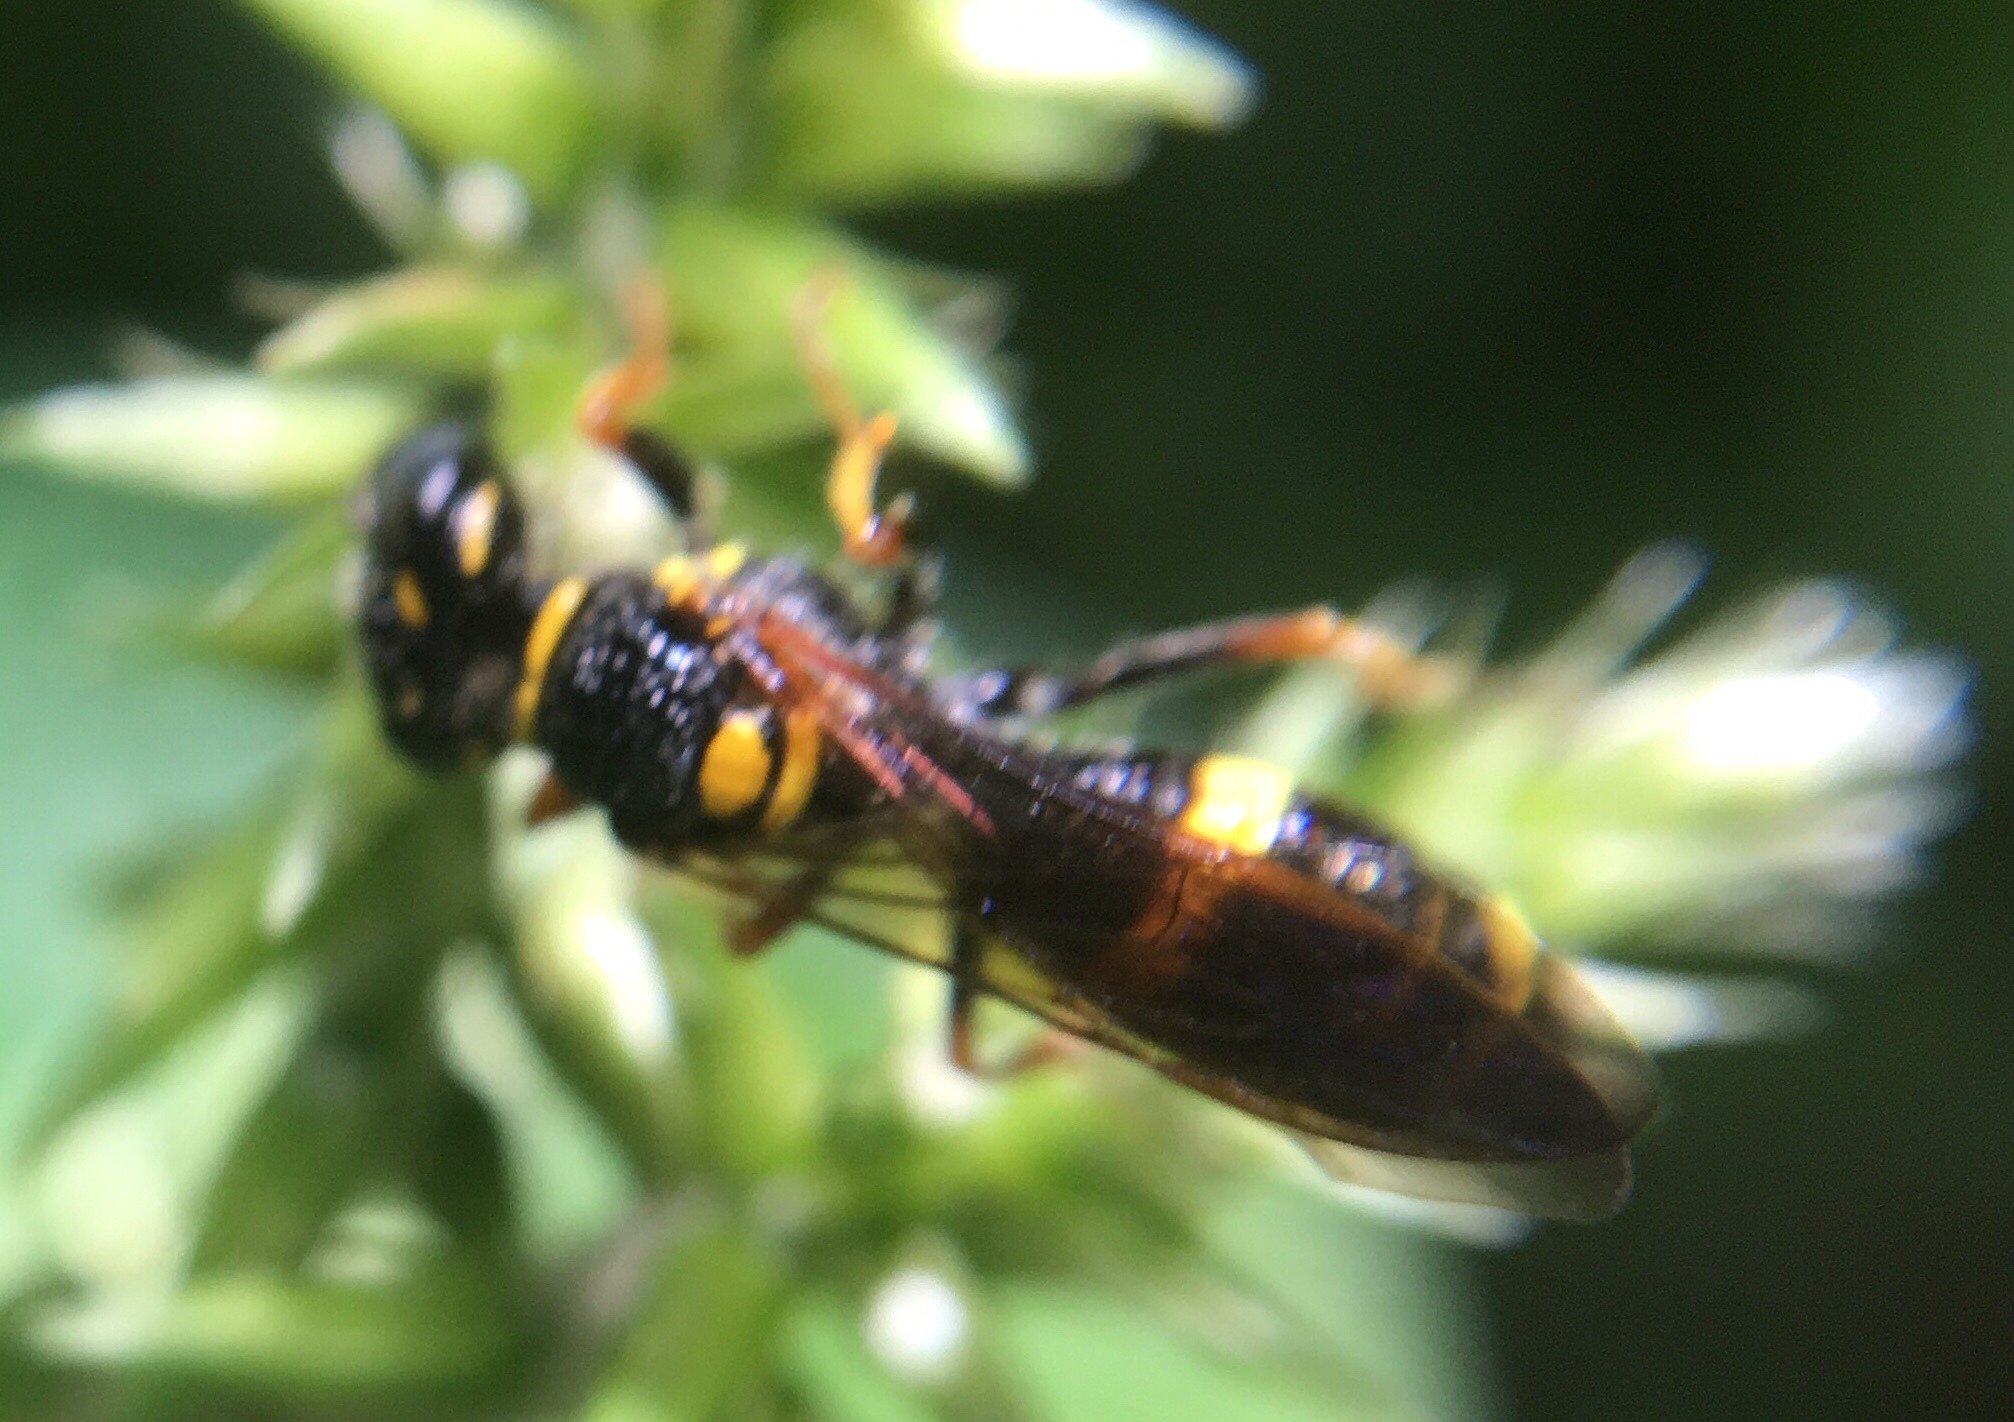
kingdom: Animalia
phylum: Arthropoda
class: Insecta
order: Hymenoptera
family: Crabronidae
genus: Philanthus
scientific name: Philanthus gibbosus
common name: Humped beewolf
